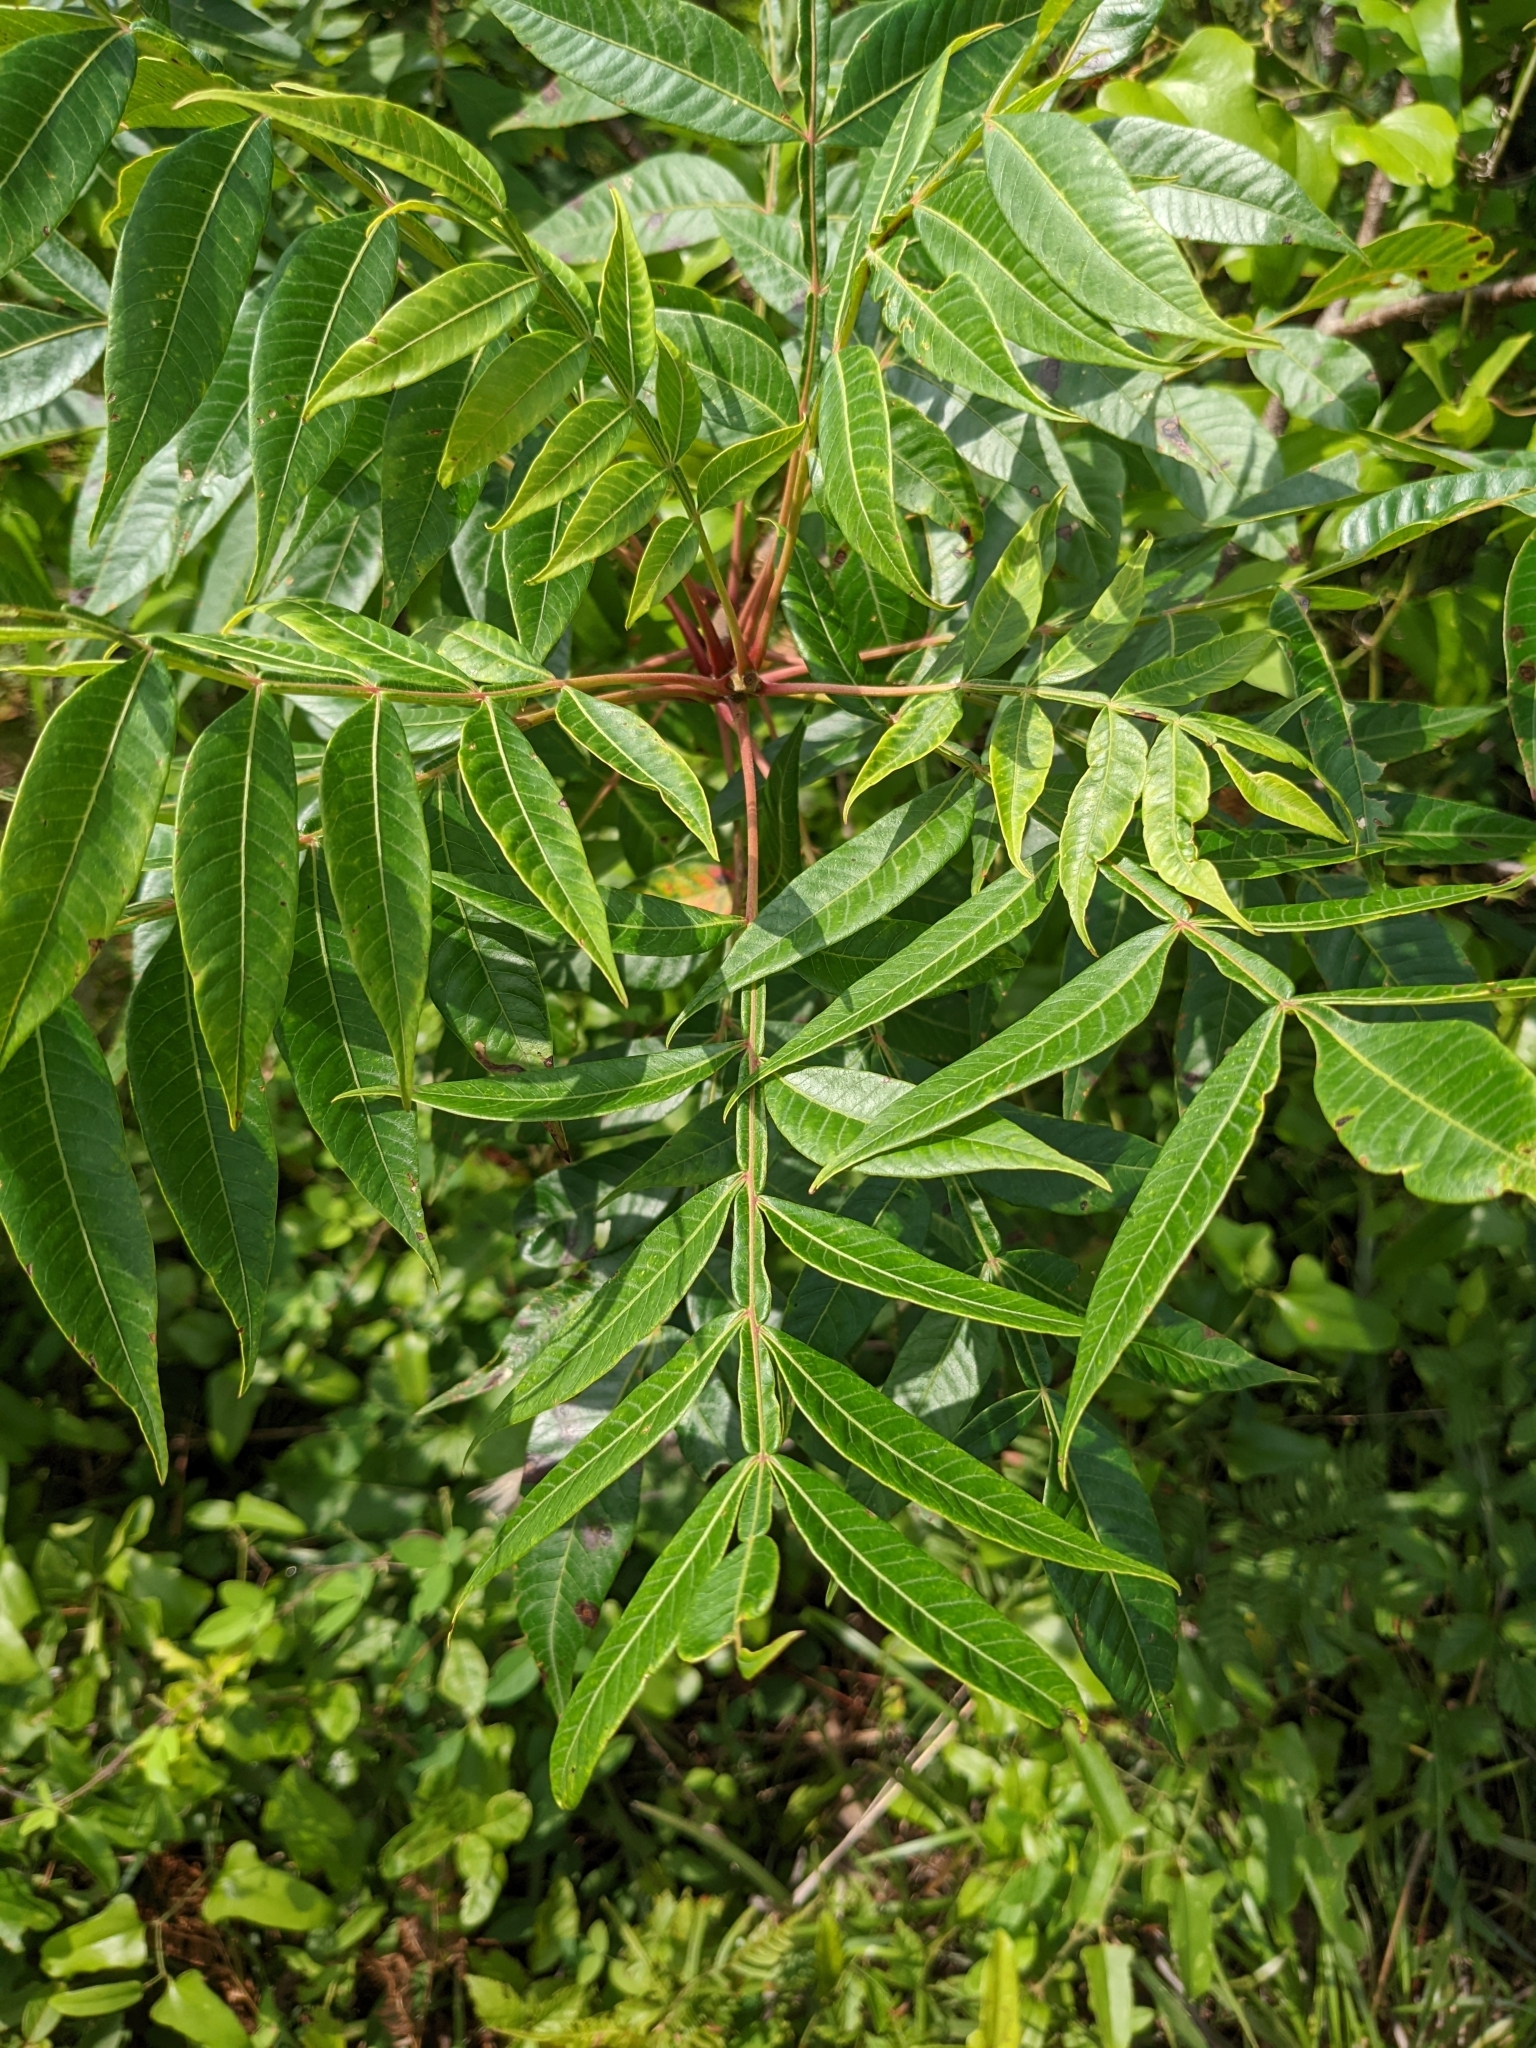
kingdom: Plantae
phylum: Tracheophyta
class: Magnoliopsida
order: Sapindales
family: Anacardiaceae
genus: Rhus
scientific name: Rhus copallina
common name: Shining sumac
